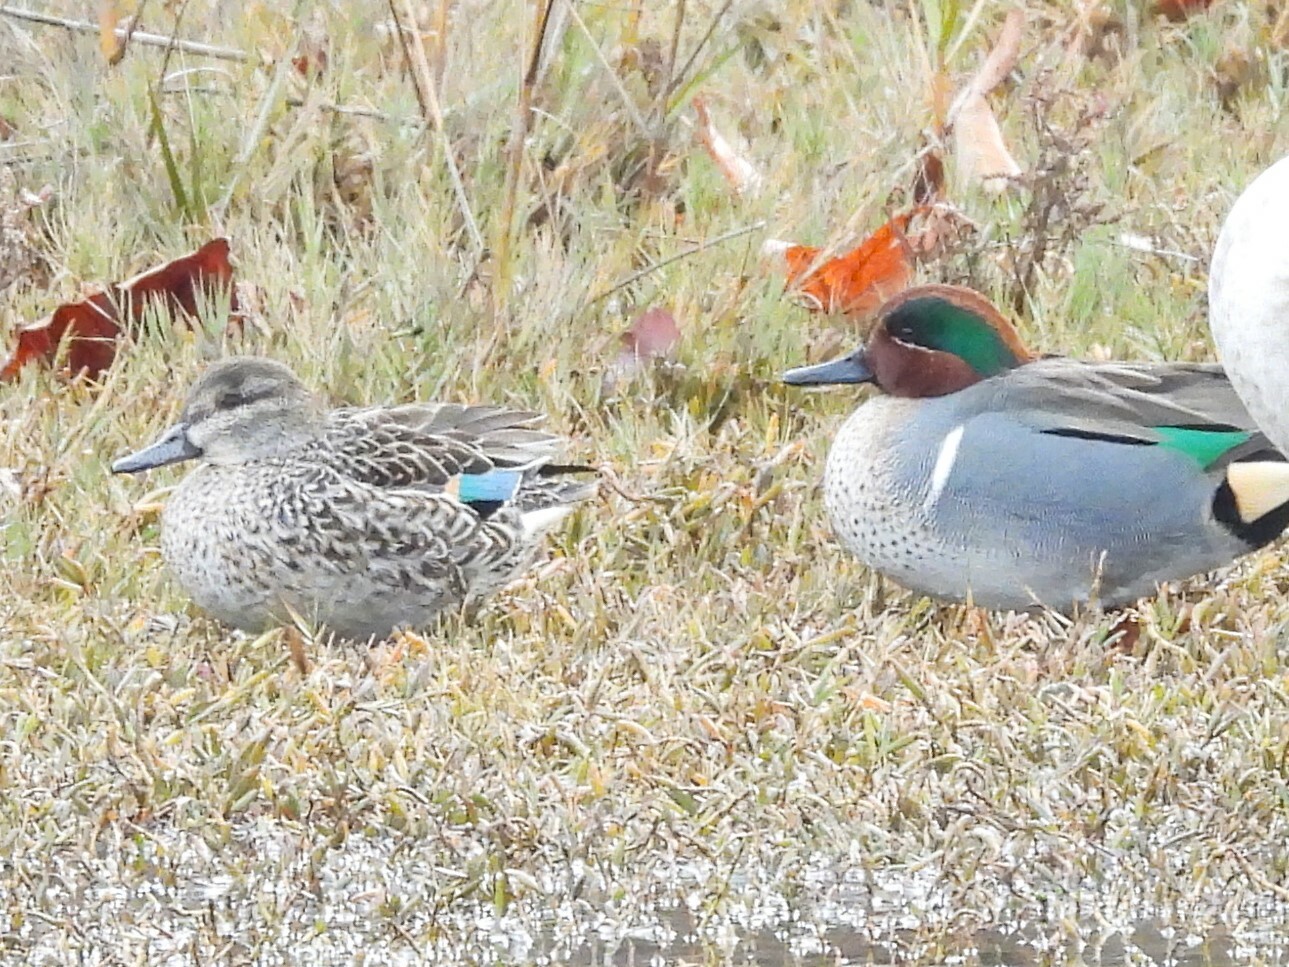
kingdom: Animalia
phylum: Chordata
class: Aves
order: Anseriformes
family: Anatidae
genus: Anas
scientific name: Anas crecca
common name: Eurasian teal
